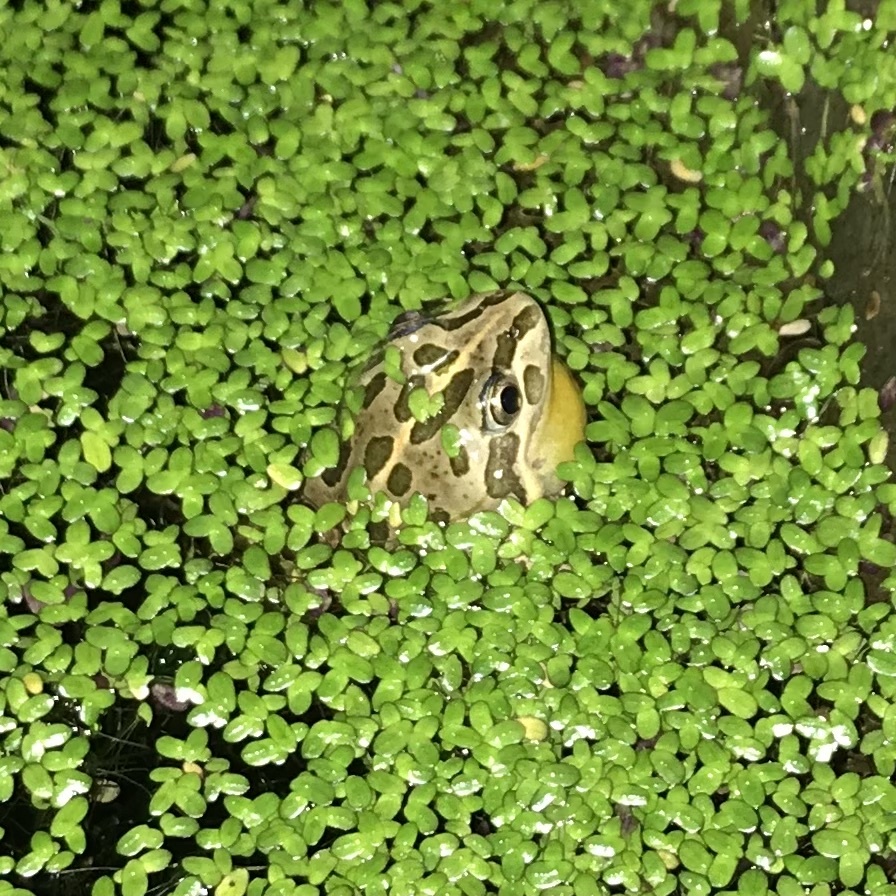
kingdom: Animalia
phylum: Chordata
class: Amphibia
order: Anura
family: Limnodynastidae
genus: Limnodynastes
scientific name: Limnodynastes tasmaniensis
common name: Spotted marsh frog
